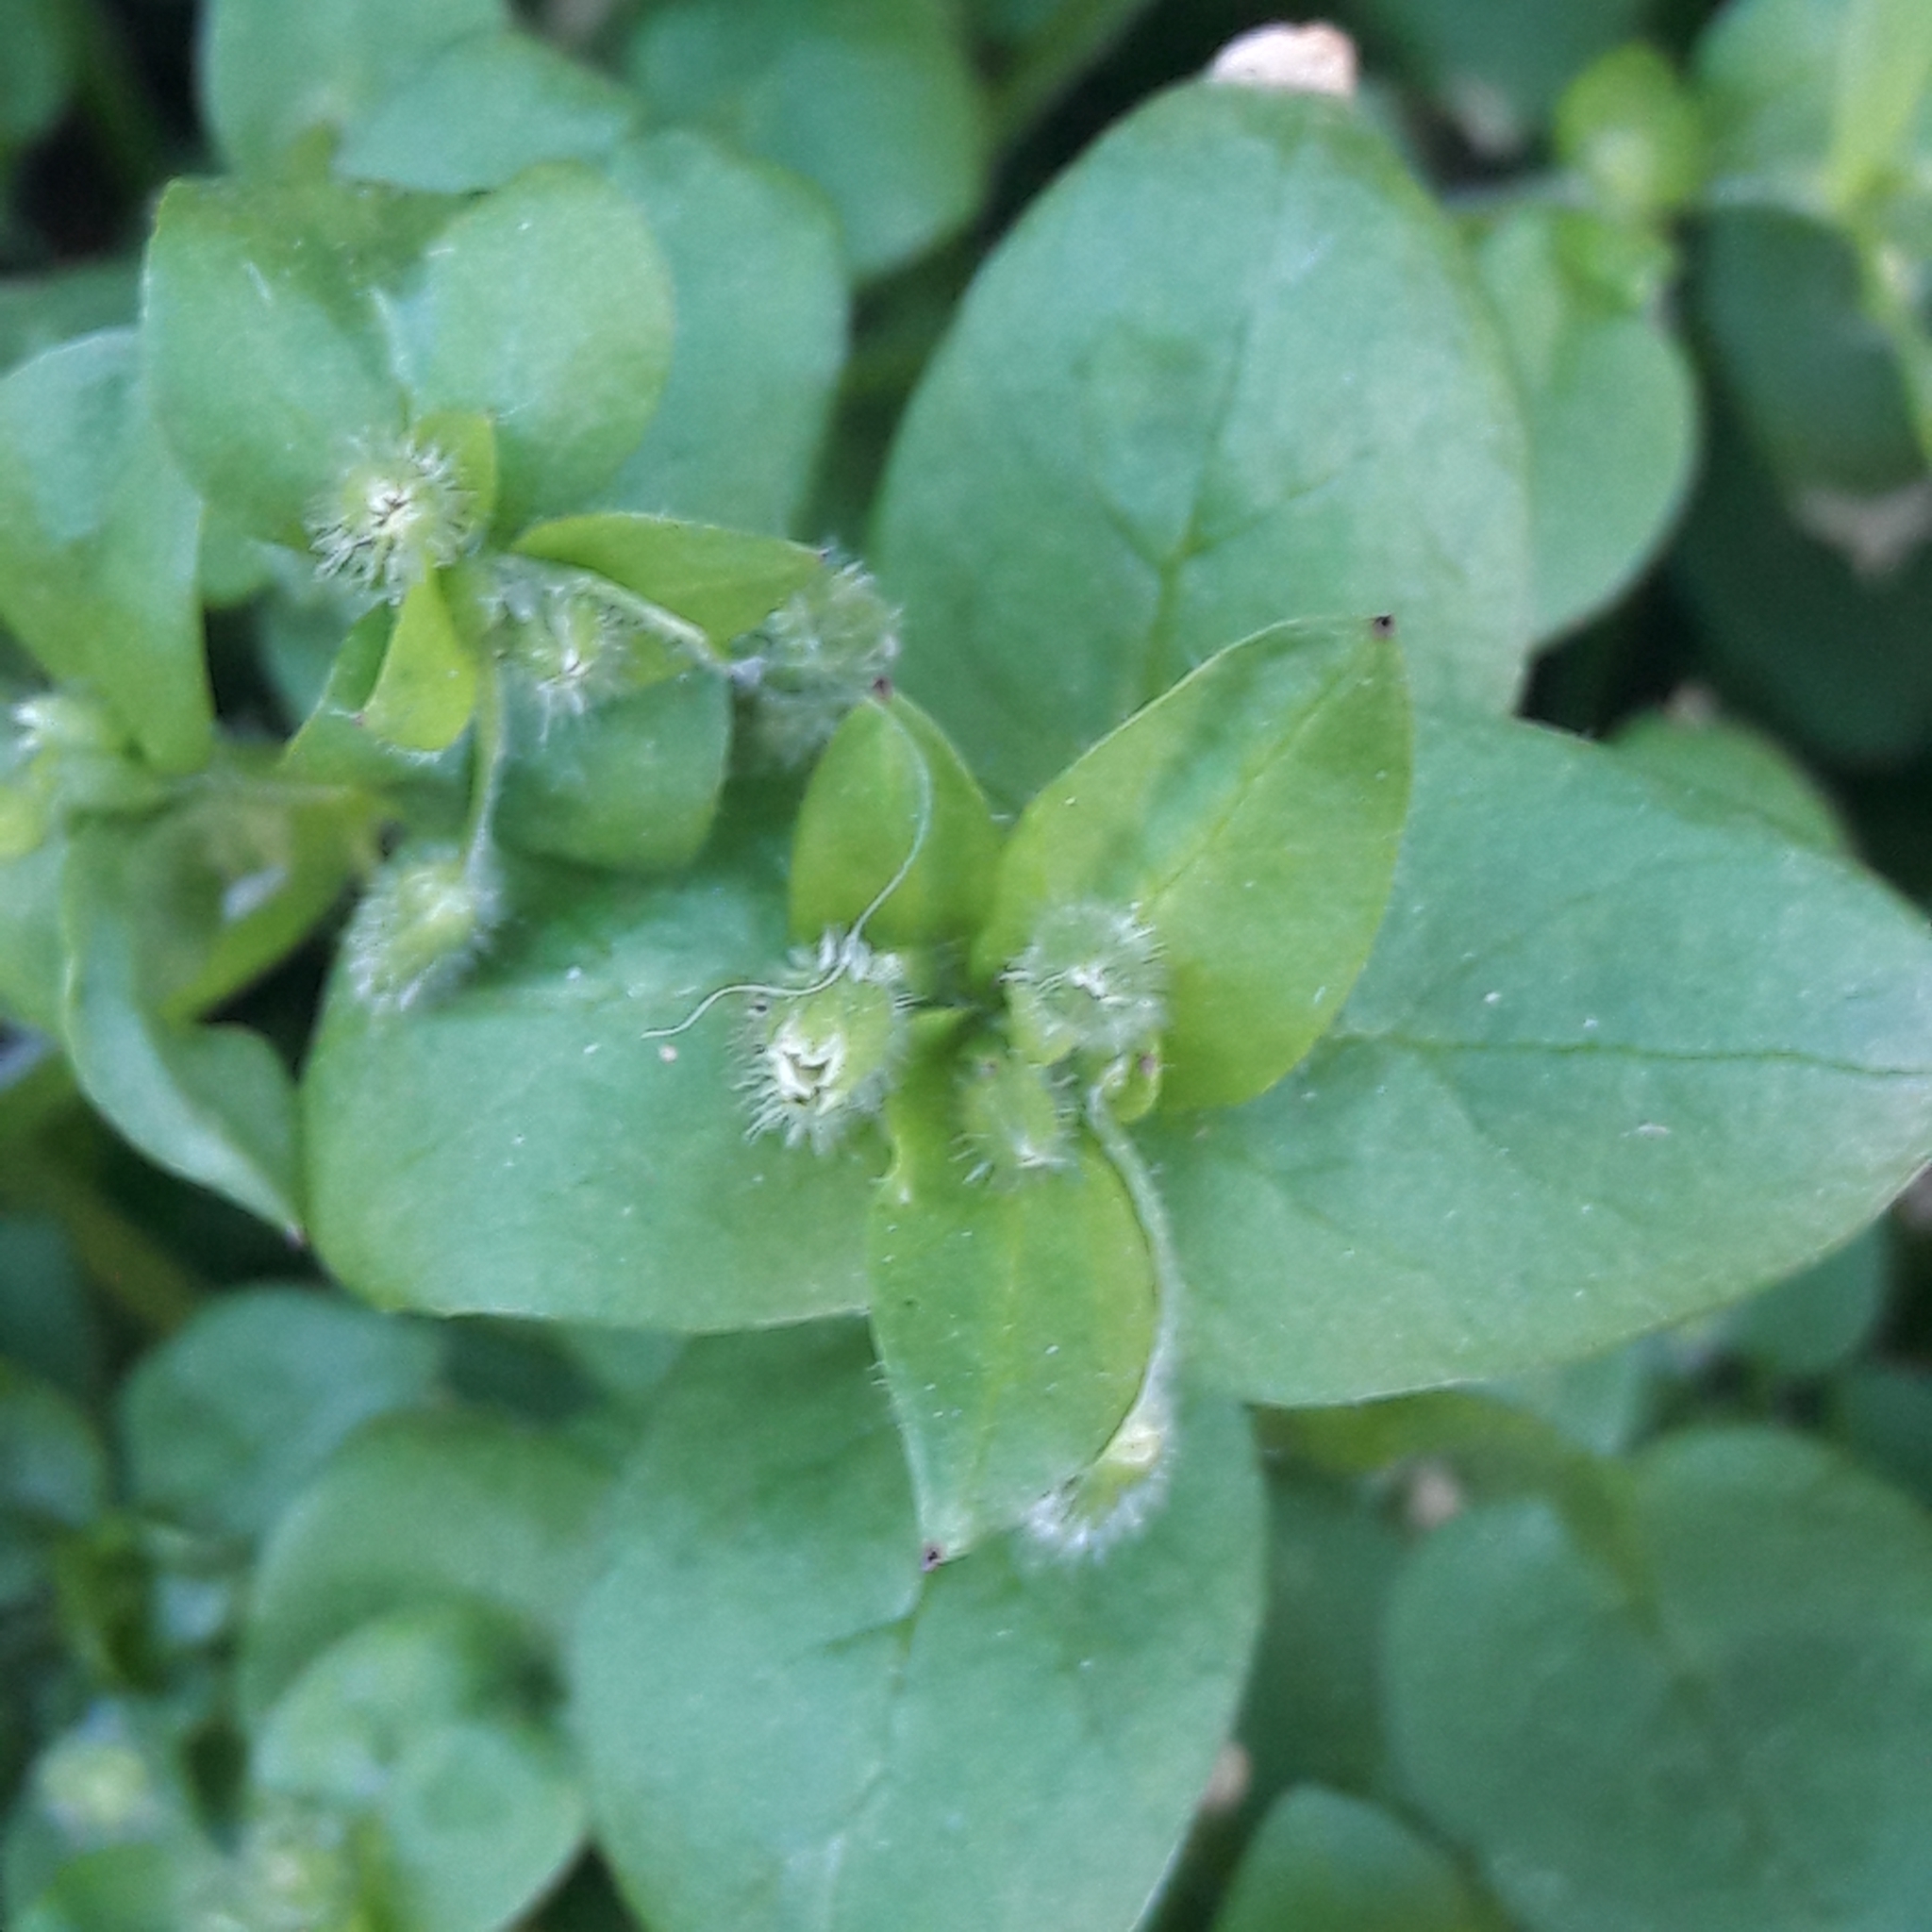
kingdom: Plantae
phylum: Tracheophyta
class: Magnoliopsida
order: Caryophyllales
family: Caryophyllaceae
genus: Stellaria
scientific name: Stellaria media
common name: Common chickweed
